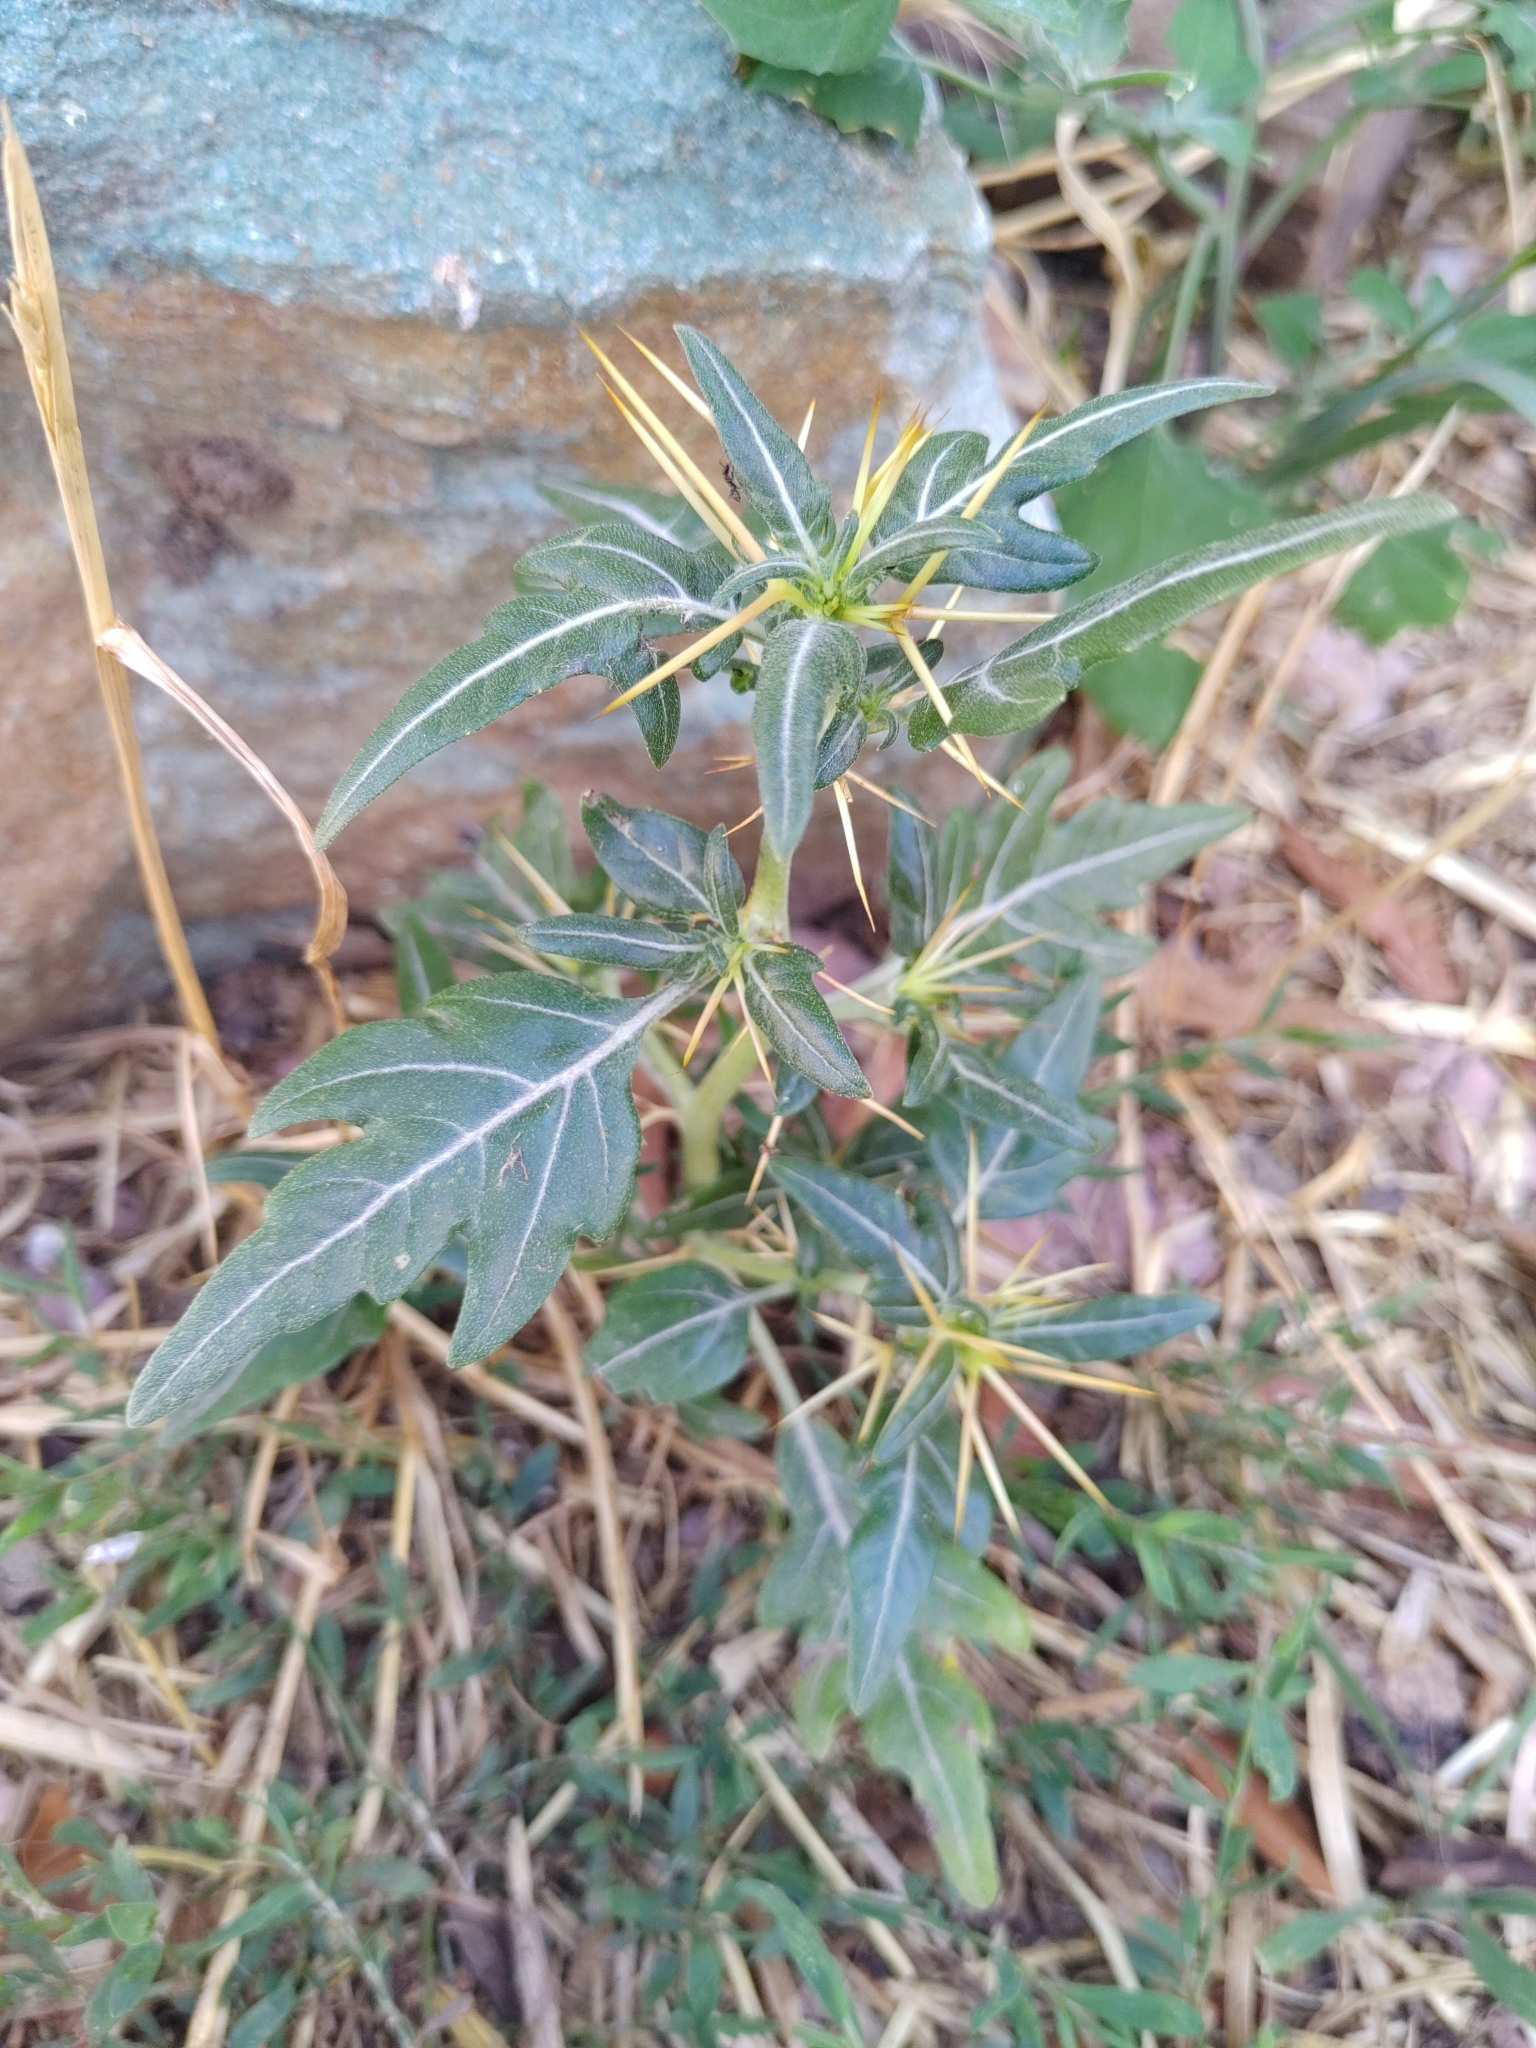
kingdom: Plantae
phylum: Tracheophyta
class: Magnoliopsida
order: Asterales
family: Asteraceae
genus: Xanthium
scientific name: Xanthium spinosum
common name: Spiny cocklebur
